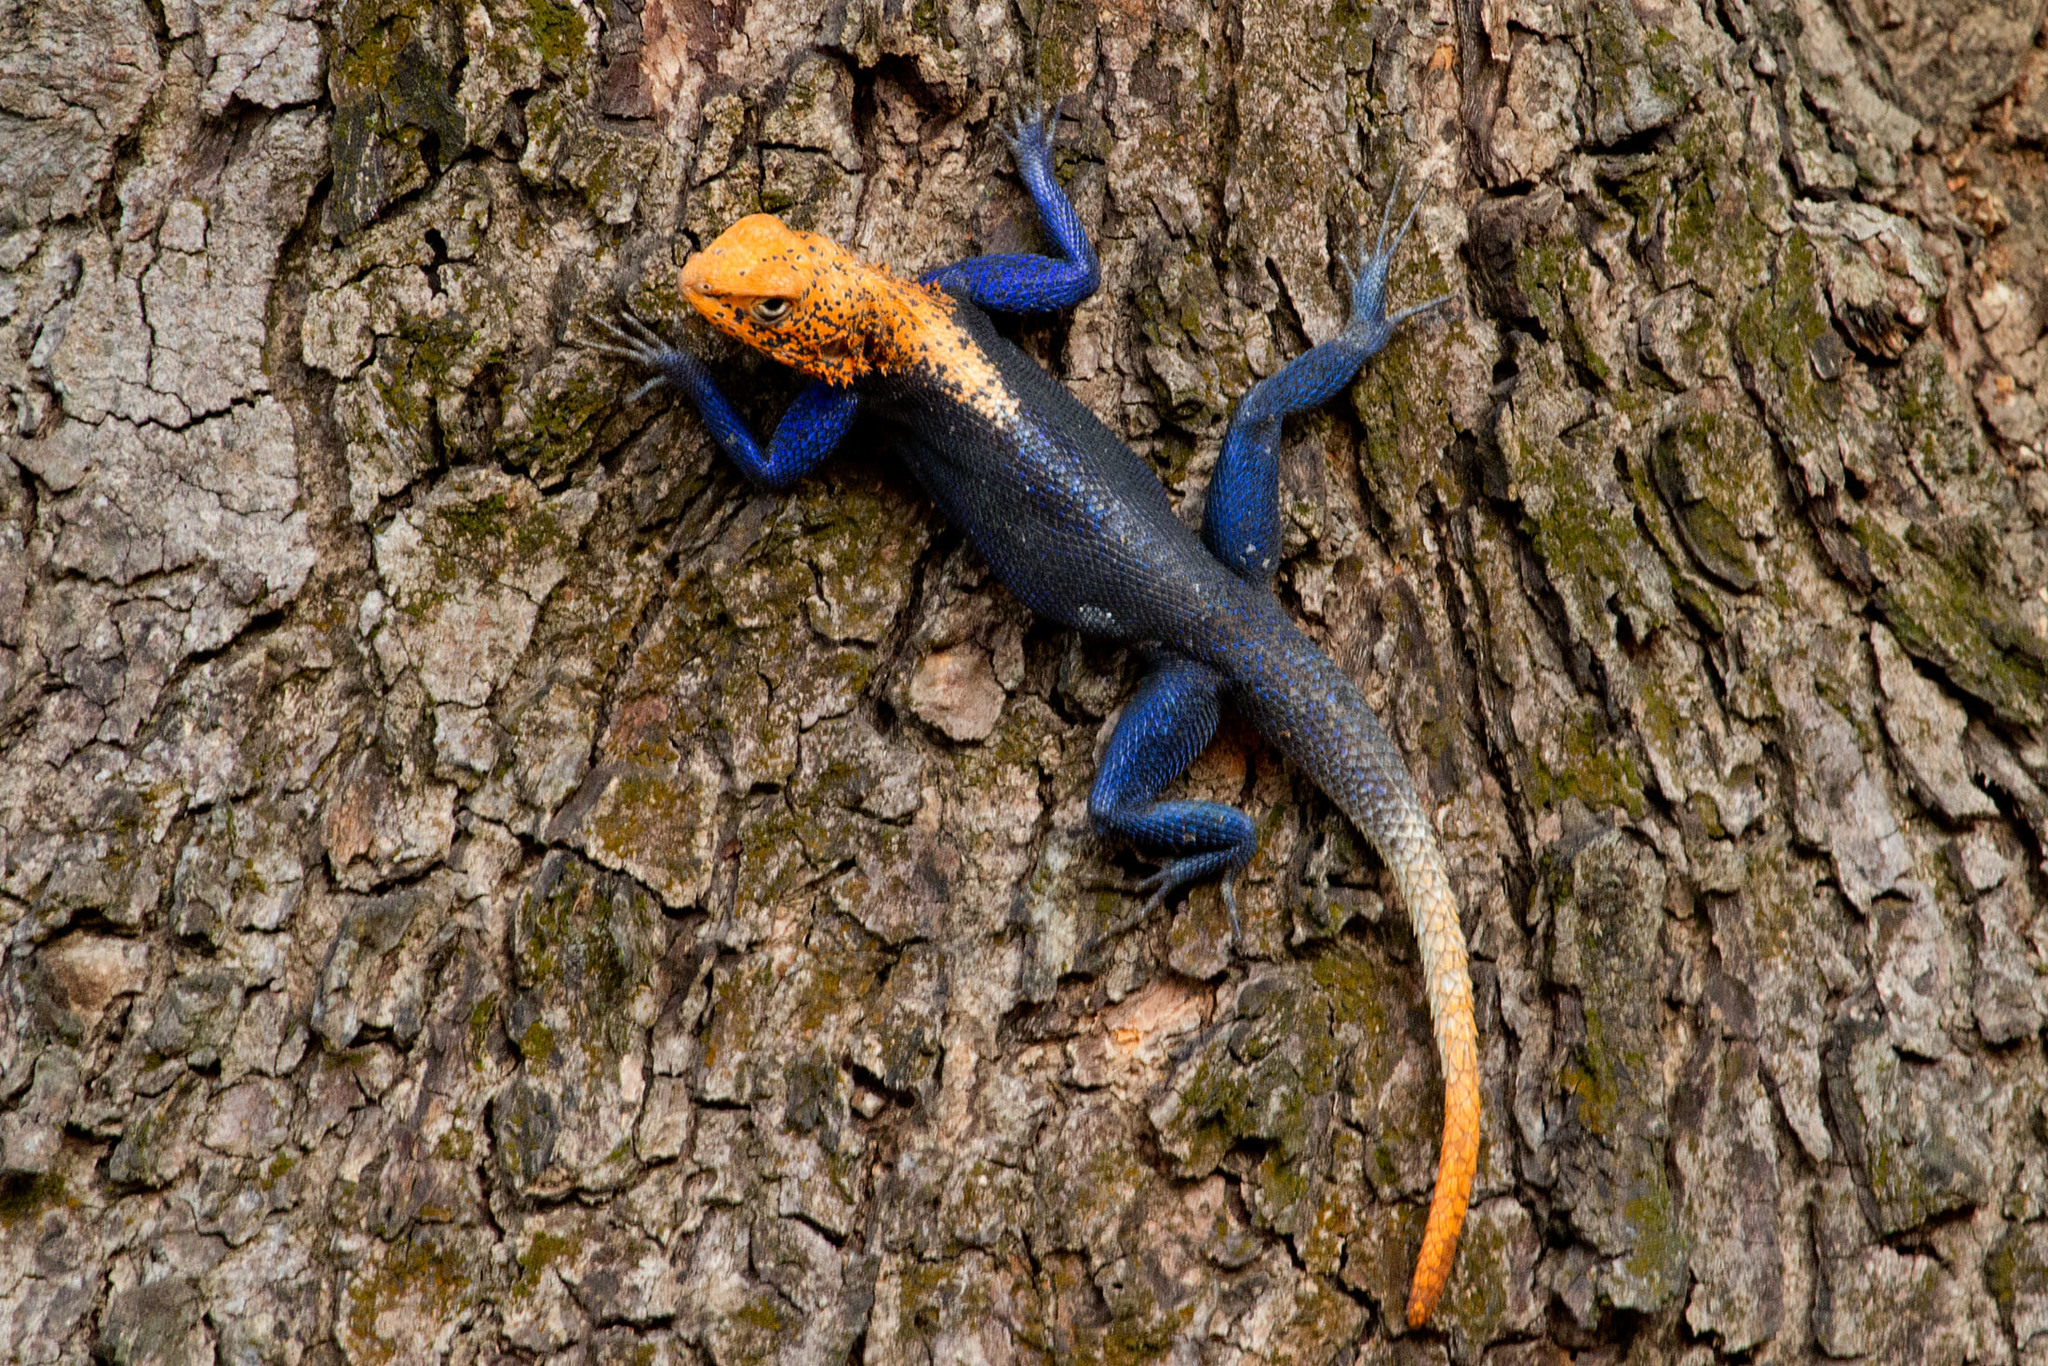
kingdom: Animalia
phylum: Chordata
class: Squamata
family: Agamidae
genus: Agama
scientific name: Agama finchi
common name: Finch’s agama
